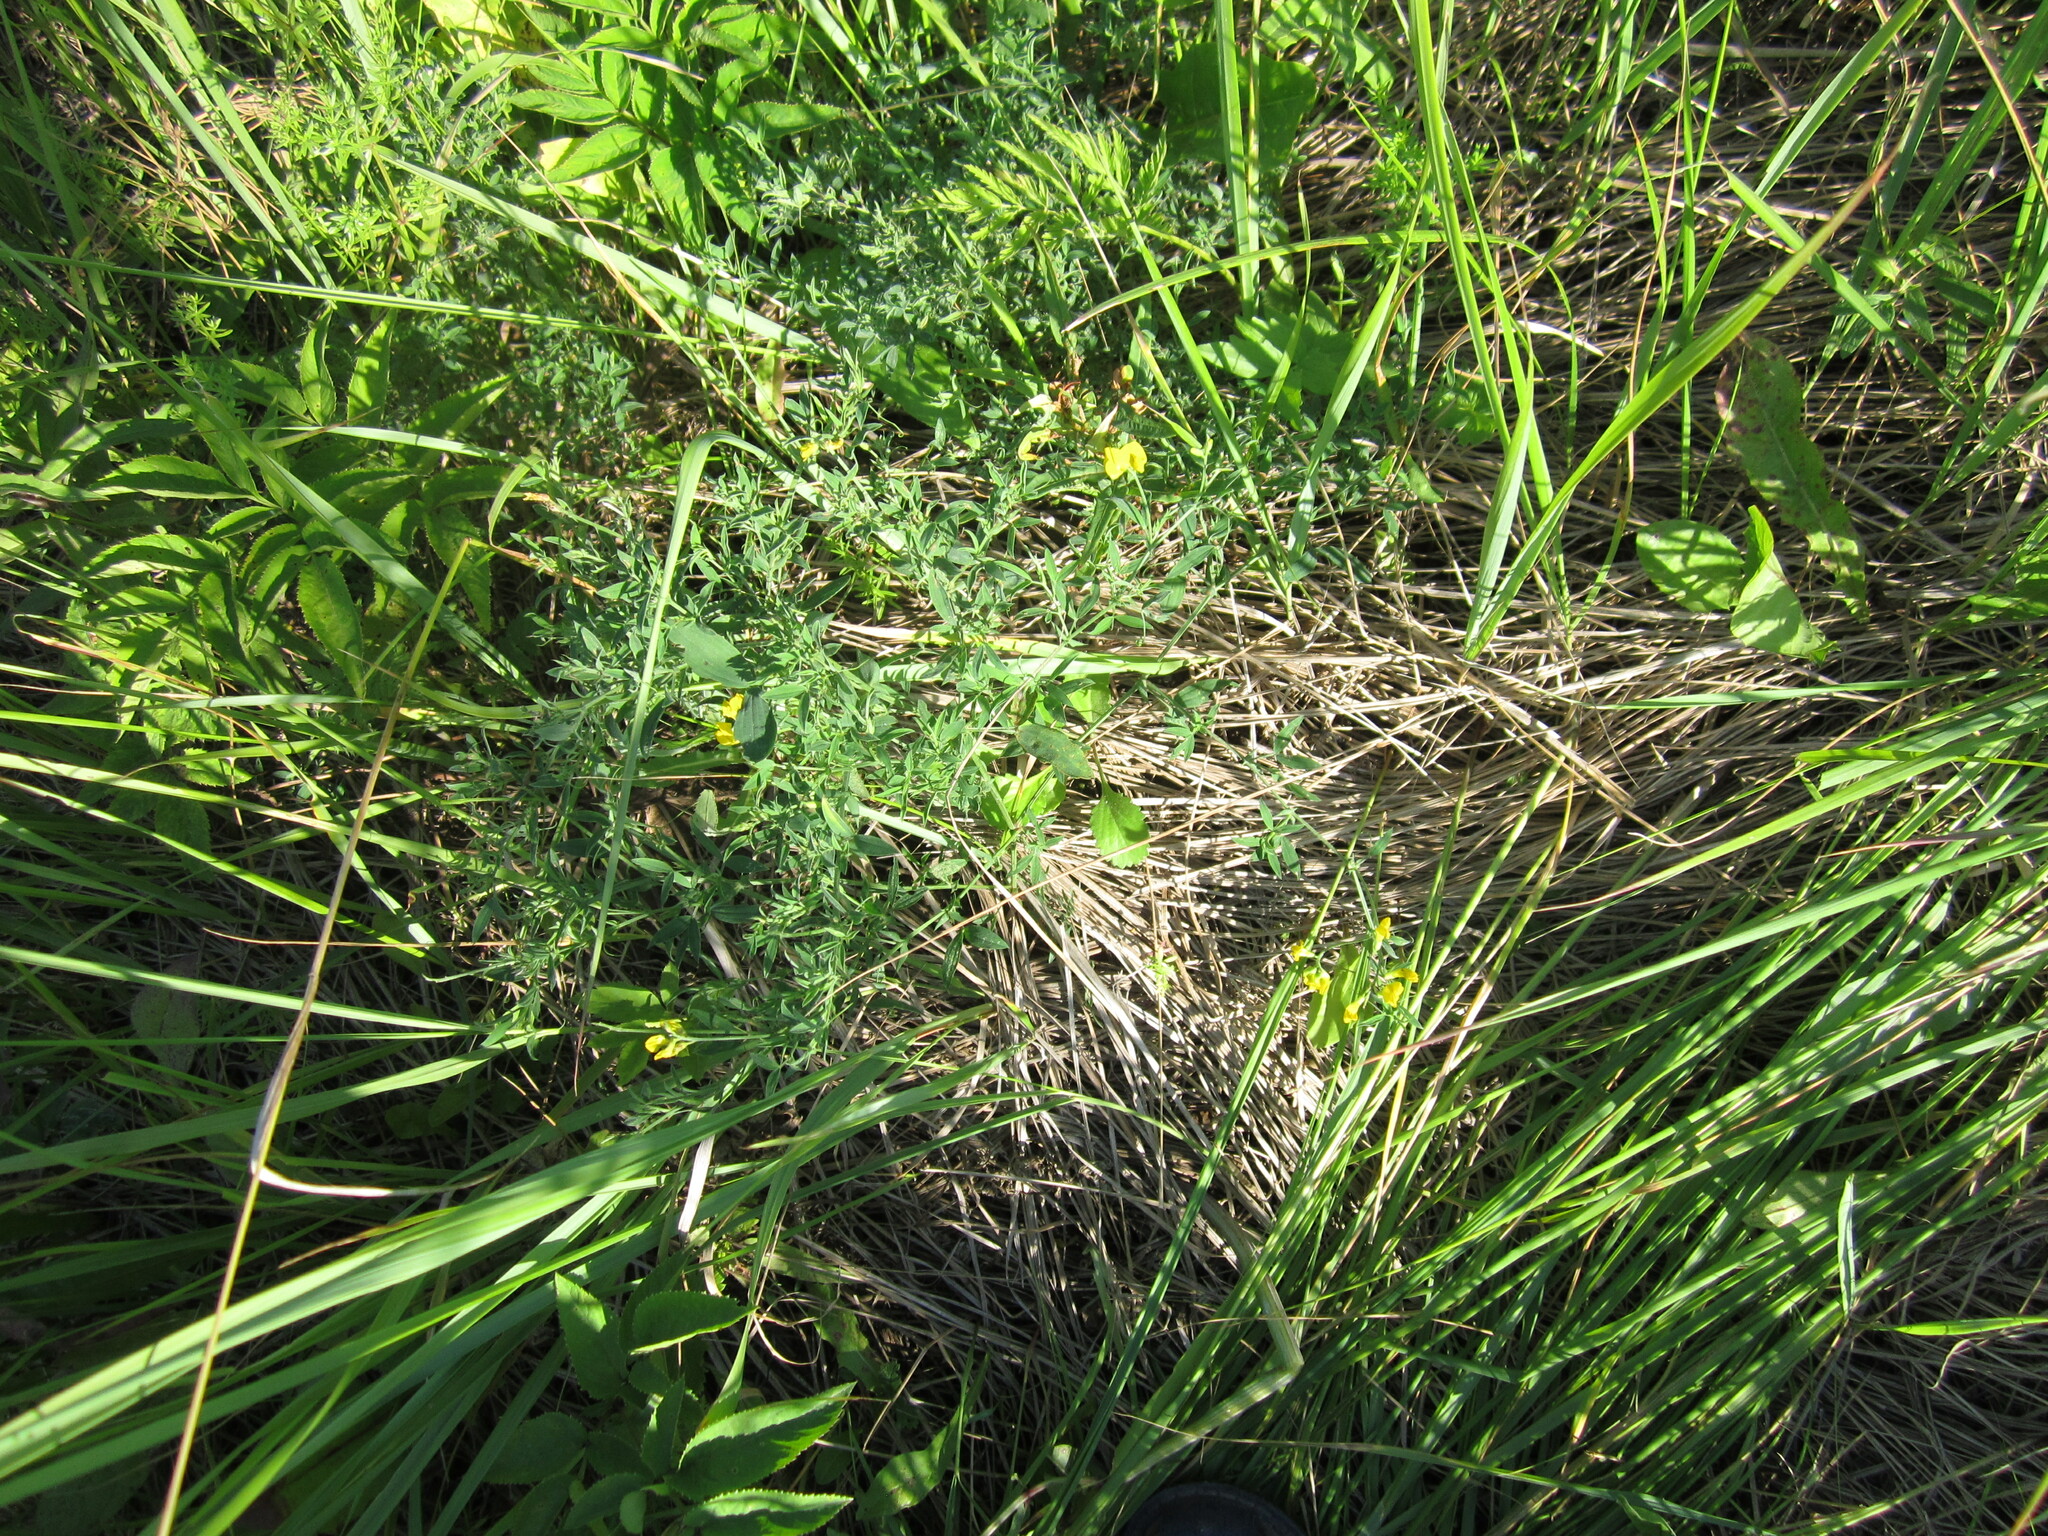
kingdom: Plantae
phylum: Tracheophyta
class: Magnoliopsida
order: Fabales
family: Fabaceae
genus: Lathyrus
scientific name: Lathyrus pratensis
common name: Meadow vetchling
